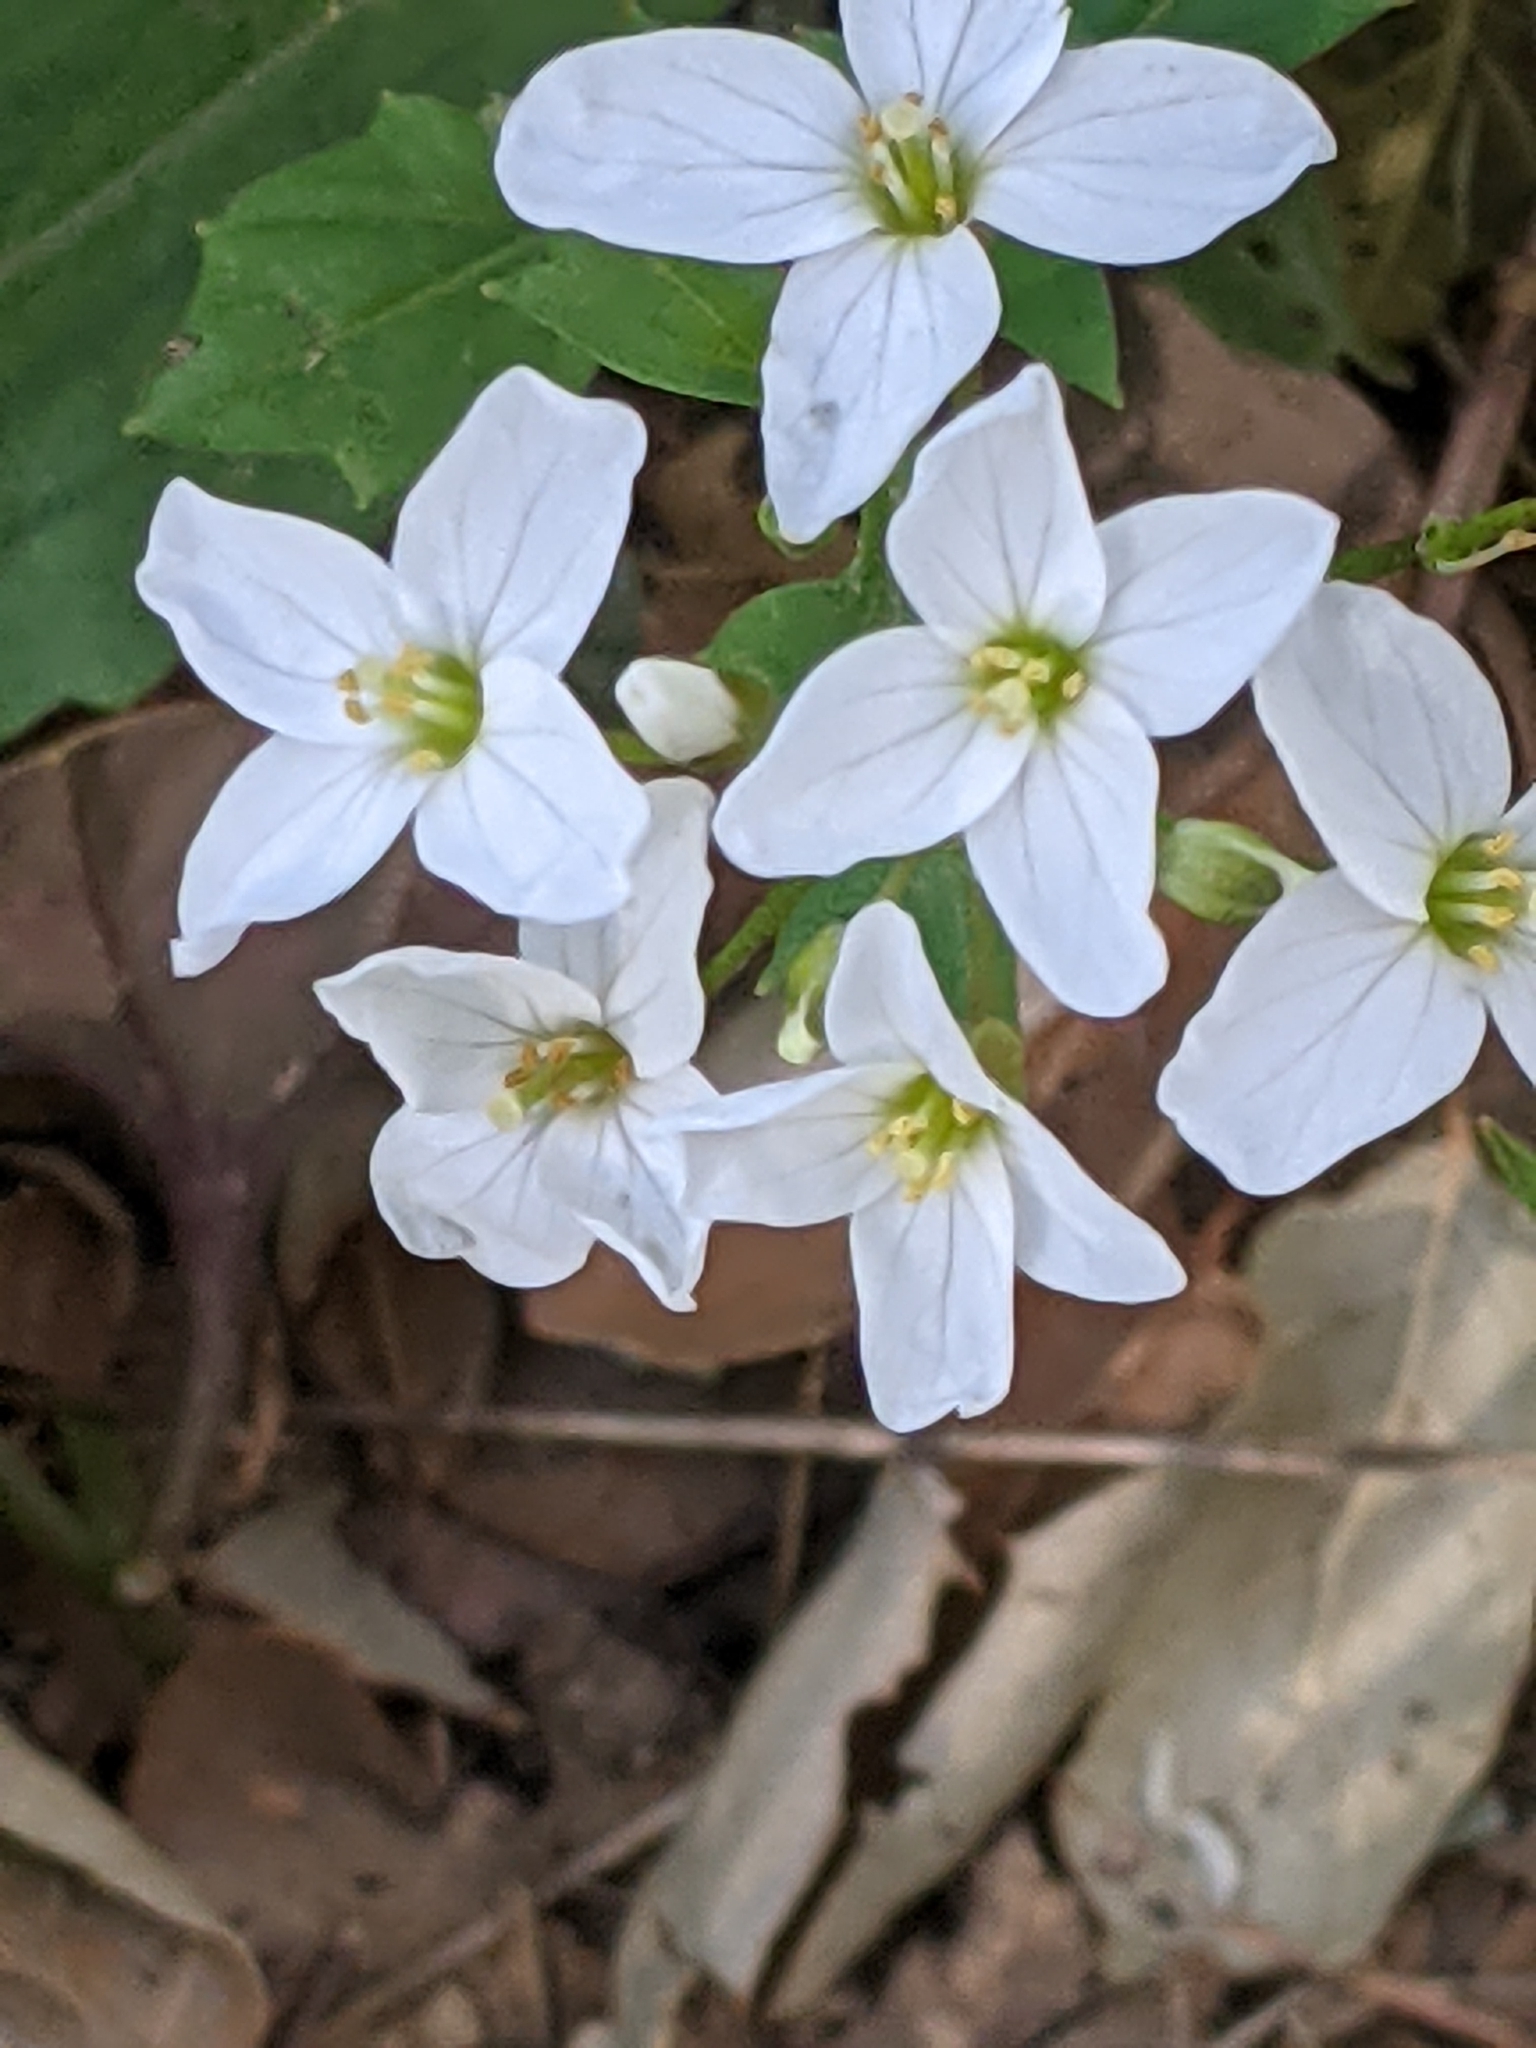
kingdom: Plantae
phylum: Tracheophyta
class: Magnoliopsida
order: Brassicales
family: Brassicaceae
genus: Cardamine
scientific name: Cardamine californica
